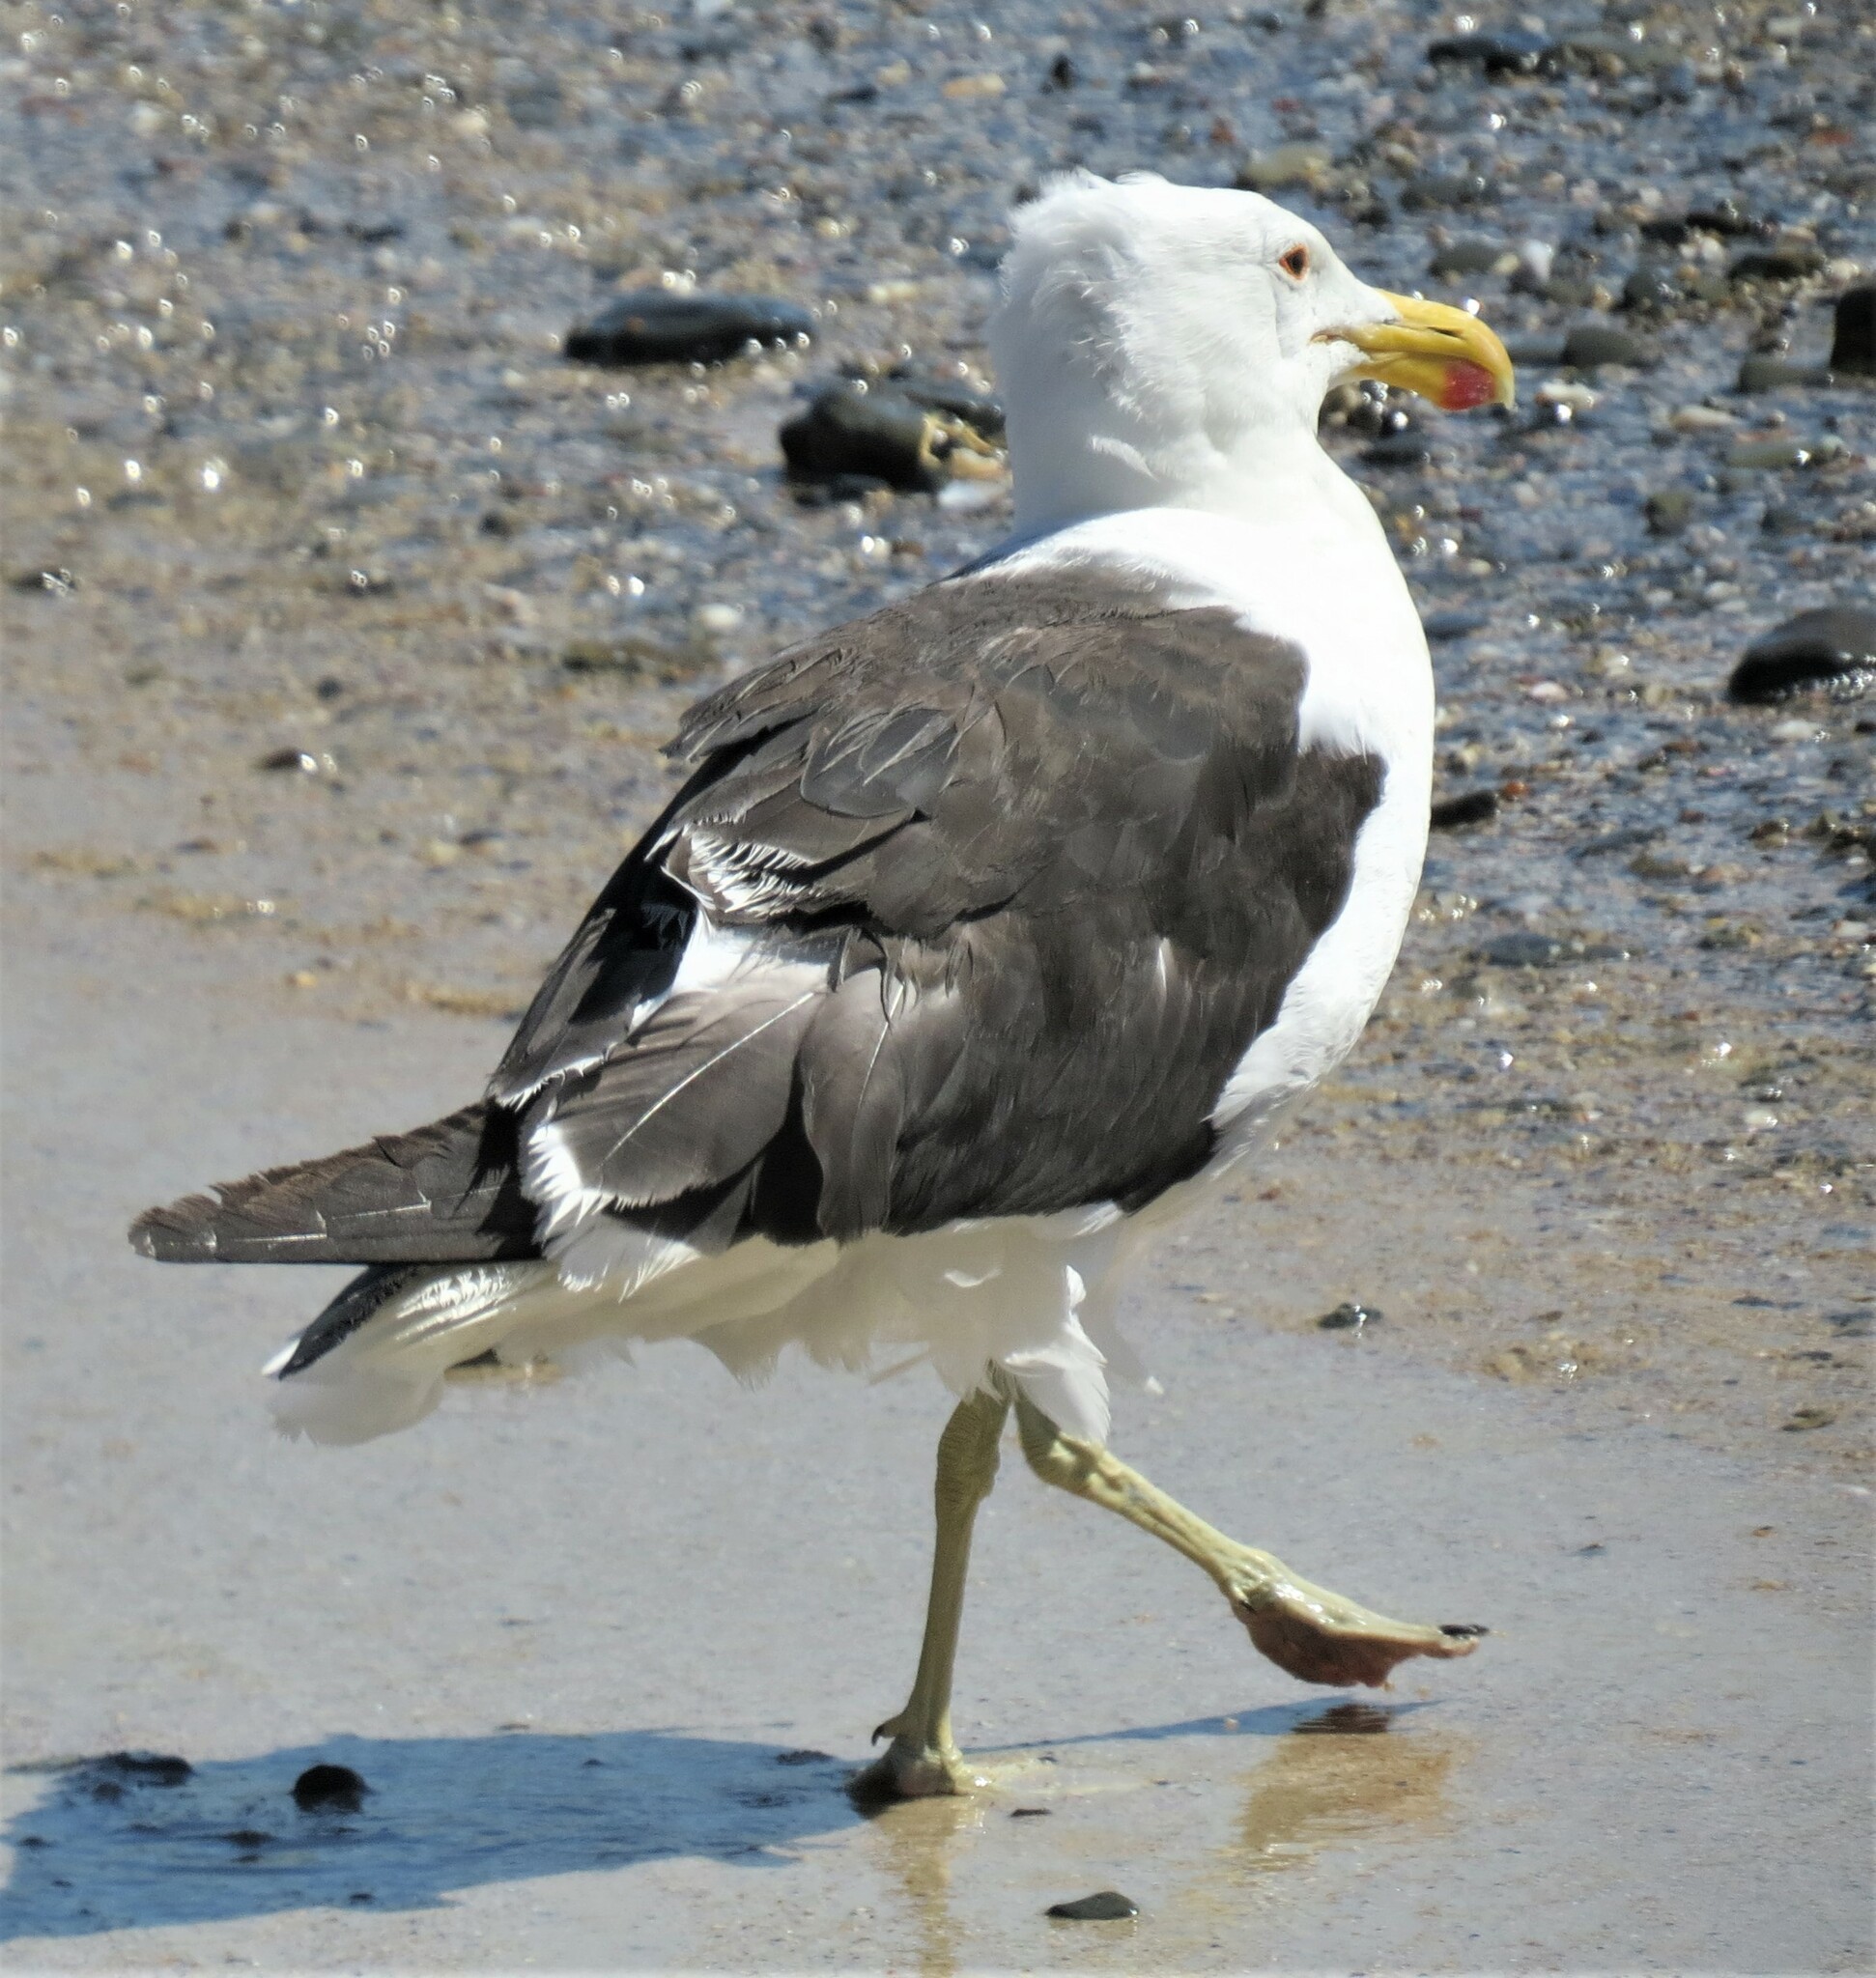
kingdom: Animalia
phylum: Chordata
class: Aves
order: Charadriiformes
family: Laridae
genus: Larus
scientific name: Larus dominicanus
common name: Kelp gull
